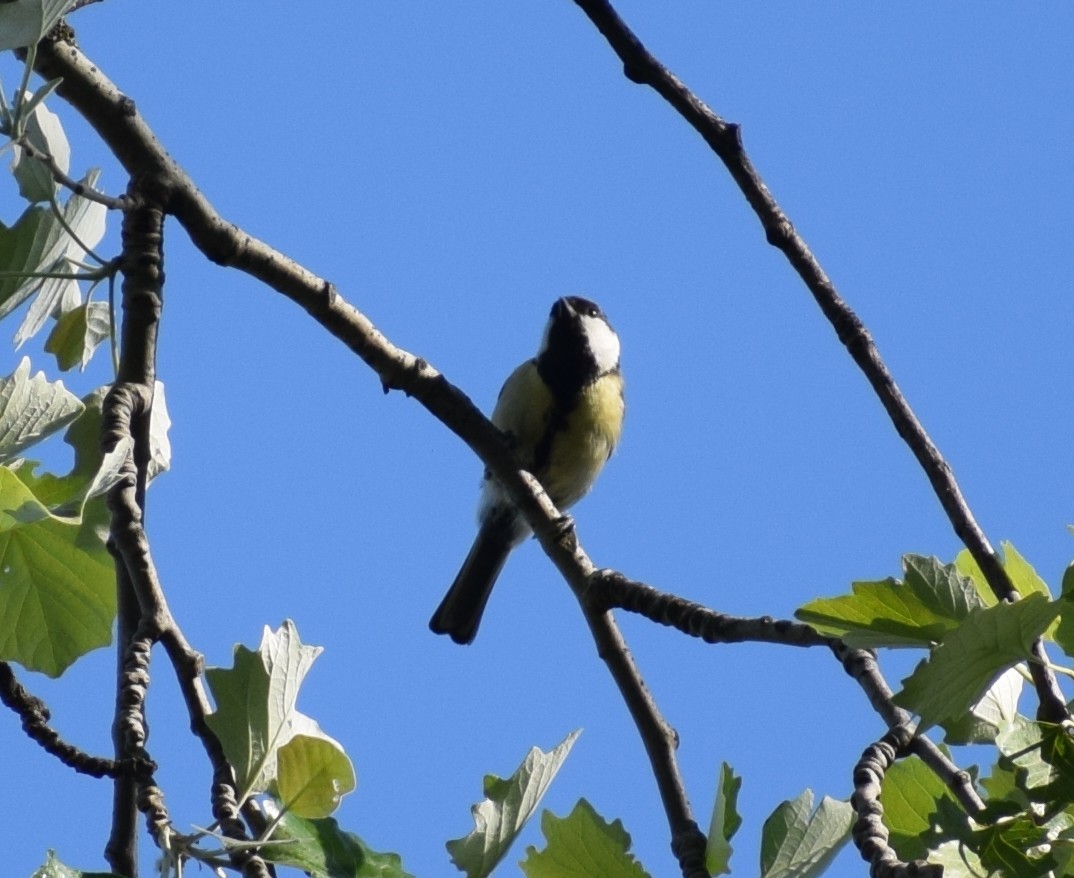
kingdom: Animalia
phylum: Chordata
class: Aves
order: Passeriformes
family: Paridae
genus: Parus
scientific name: Parus major
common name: Great tit
